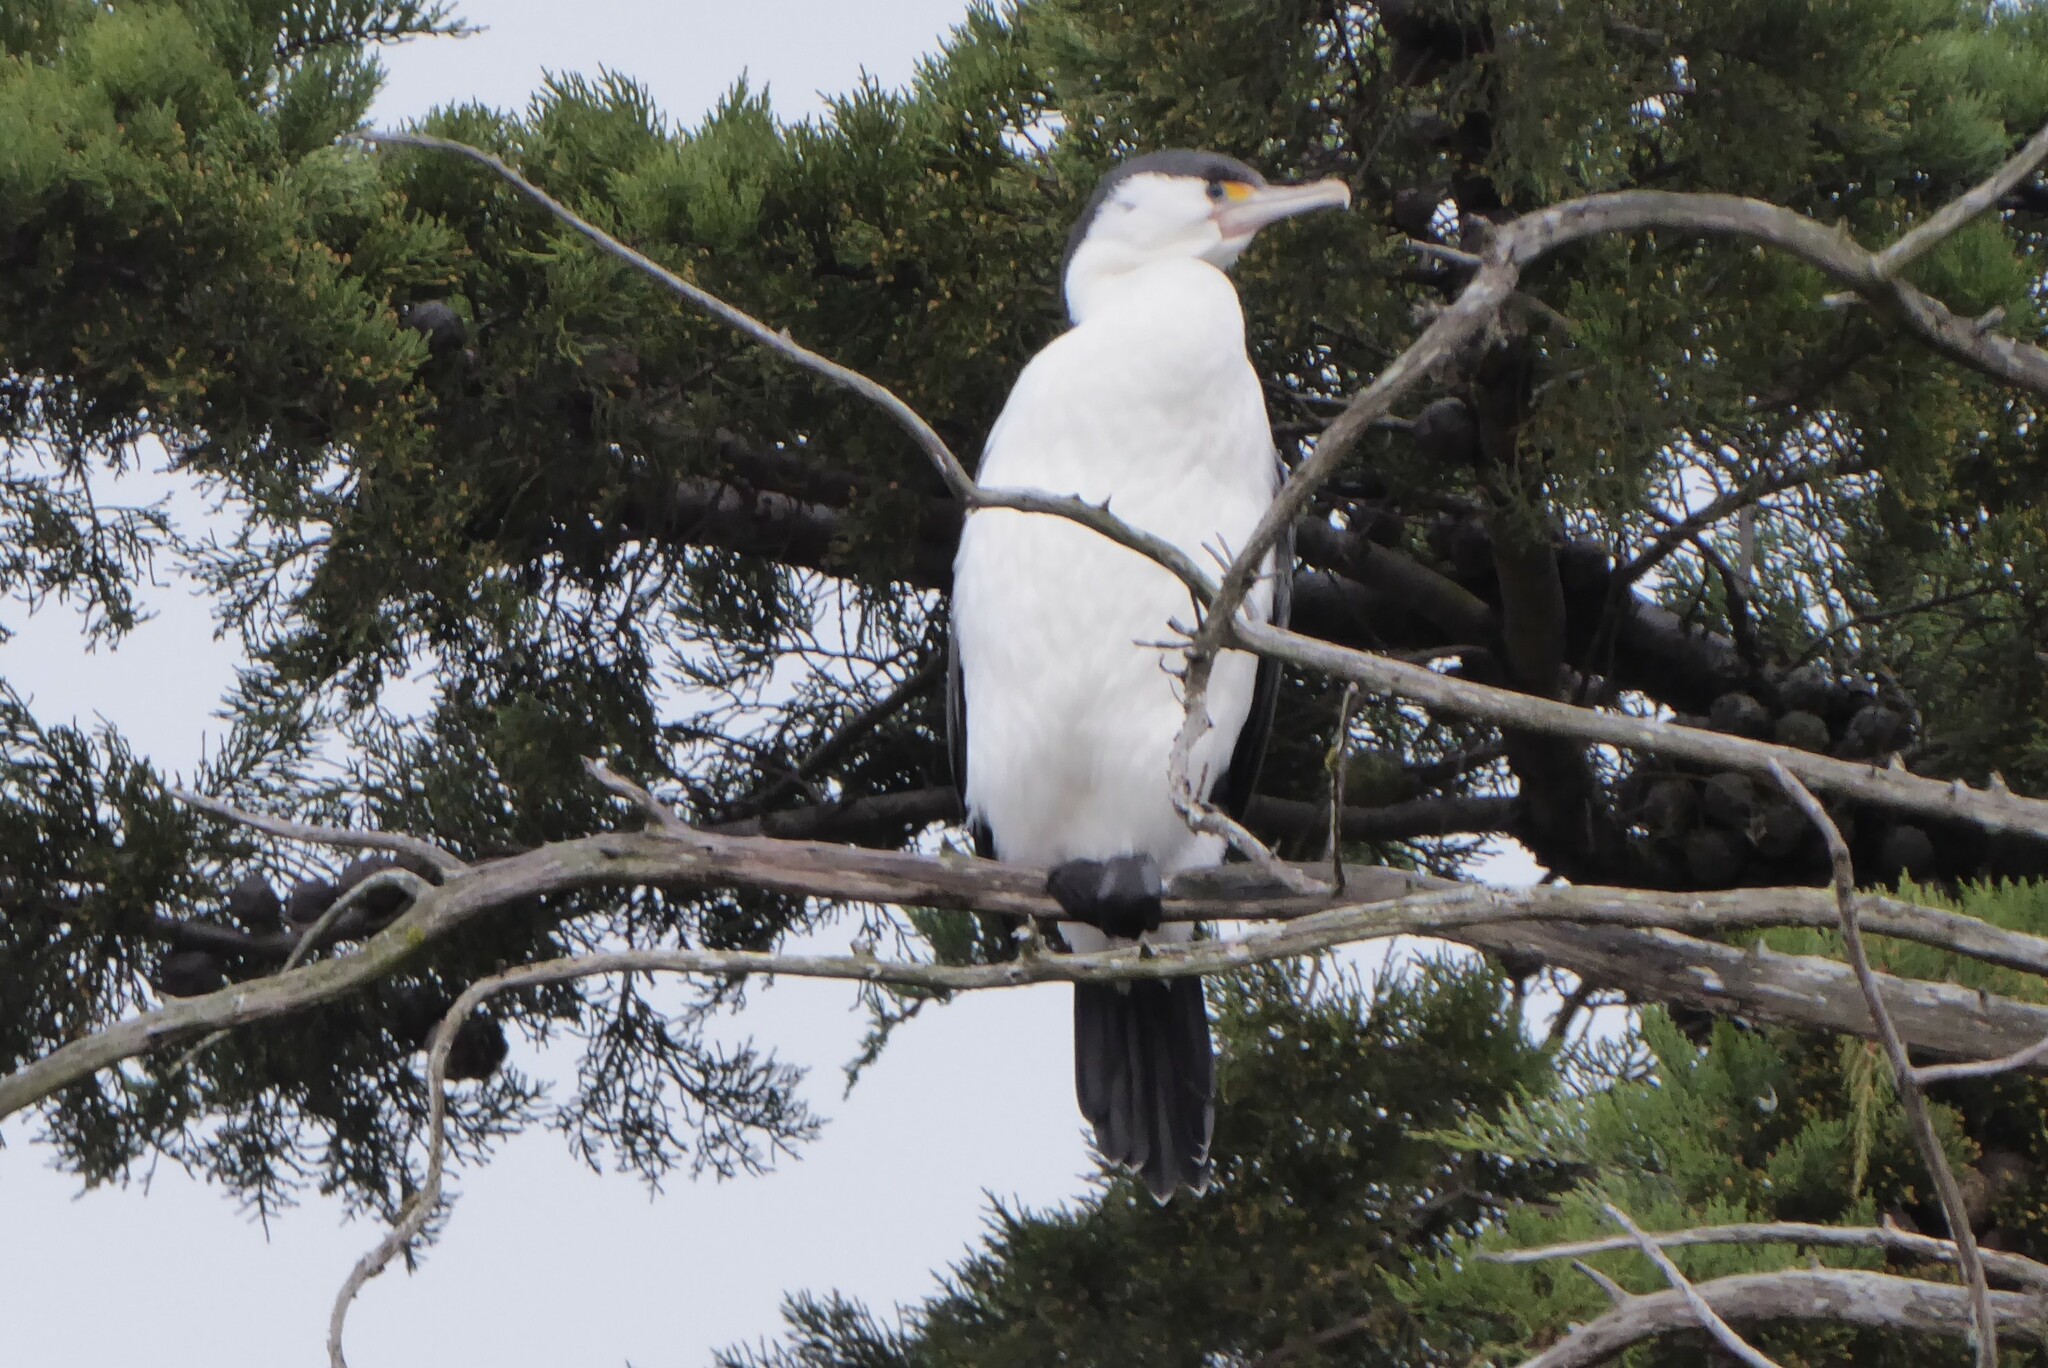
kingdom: Animalia
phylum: Chordata
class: Aves
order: Suliformes
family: Phalacrocoracidae
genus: Phalacrocorax
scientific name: Phalacrocorax varius
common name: Pied cormorant
